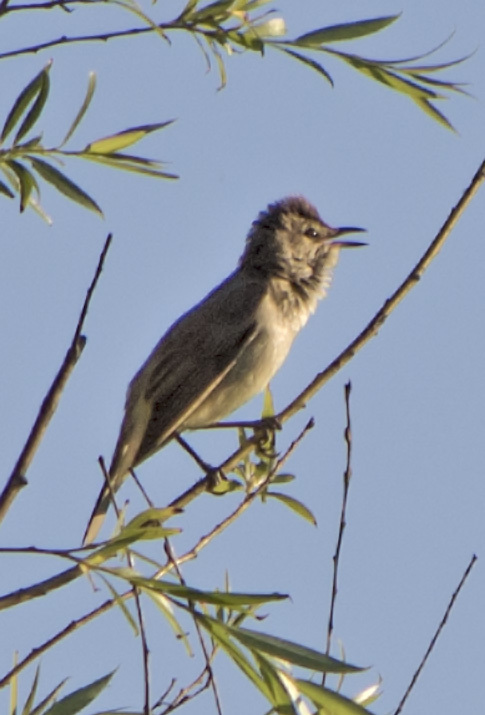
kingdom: Animalia
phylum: Chordata
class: Aves
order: Passeriformes
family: Acrocephalidae
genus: Acrocephalus
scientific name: Acrocephalus arundinaceus
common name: Great reed warbler
